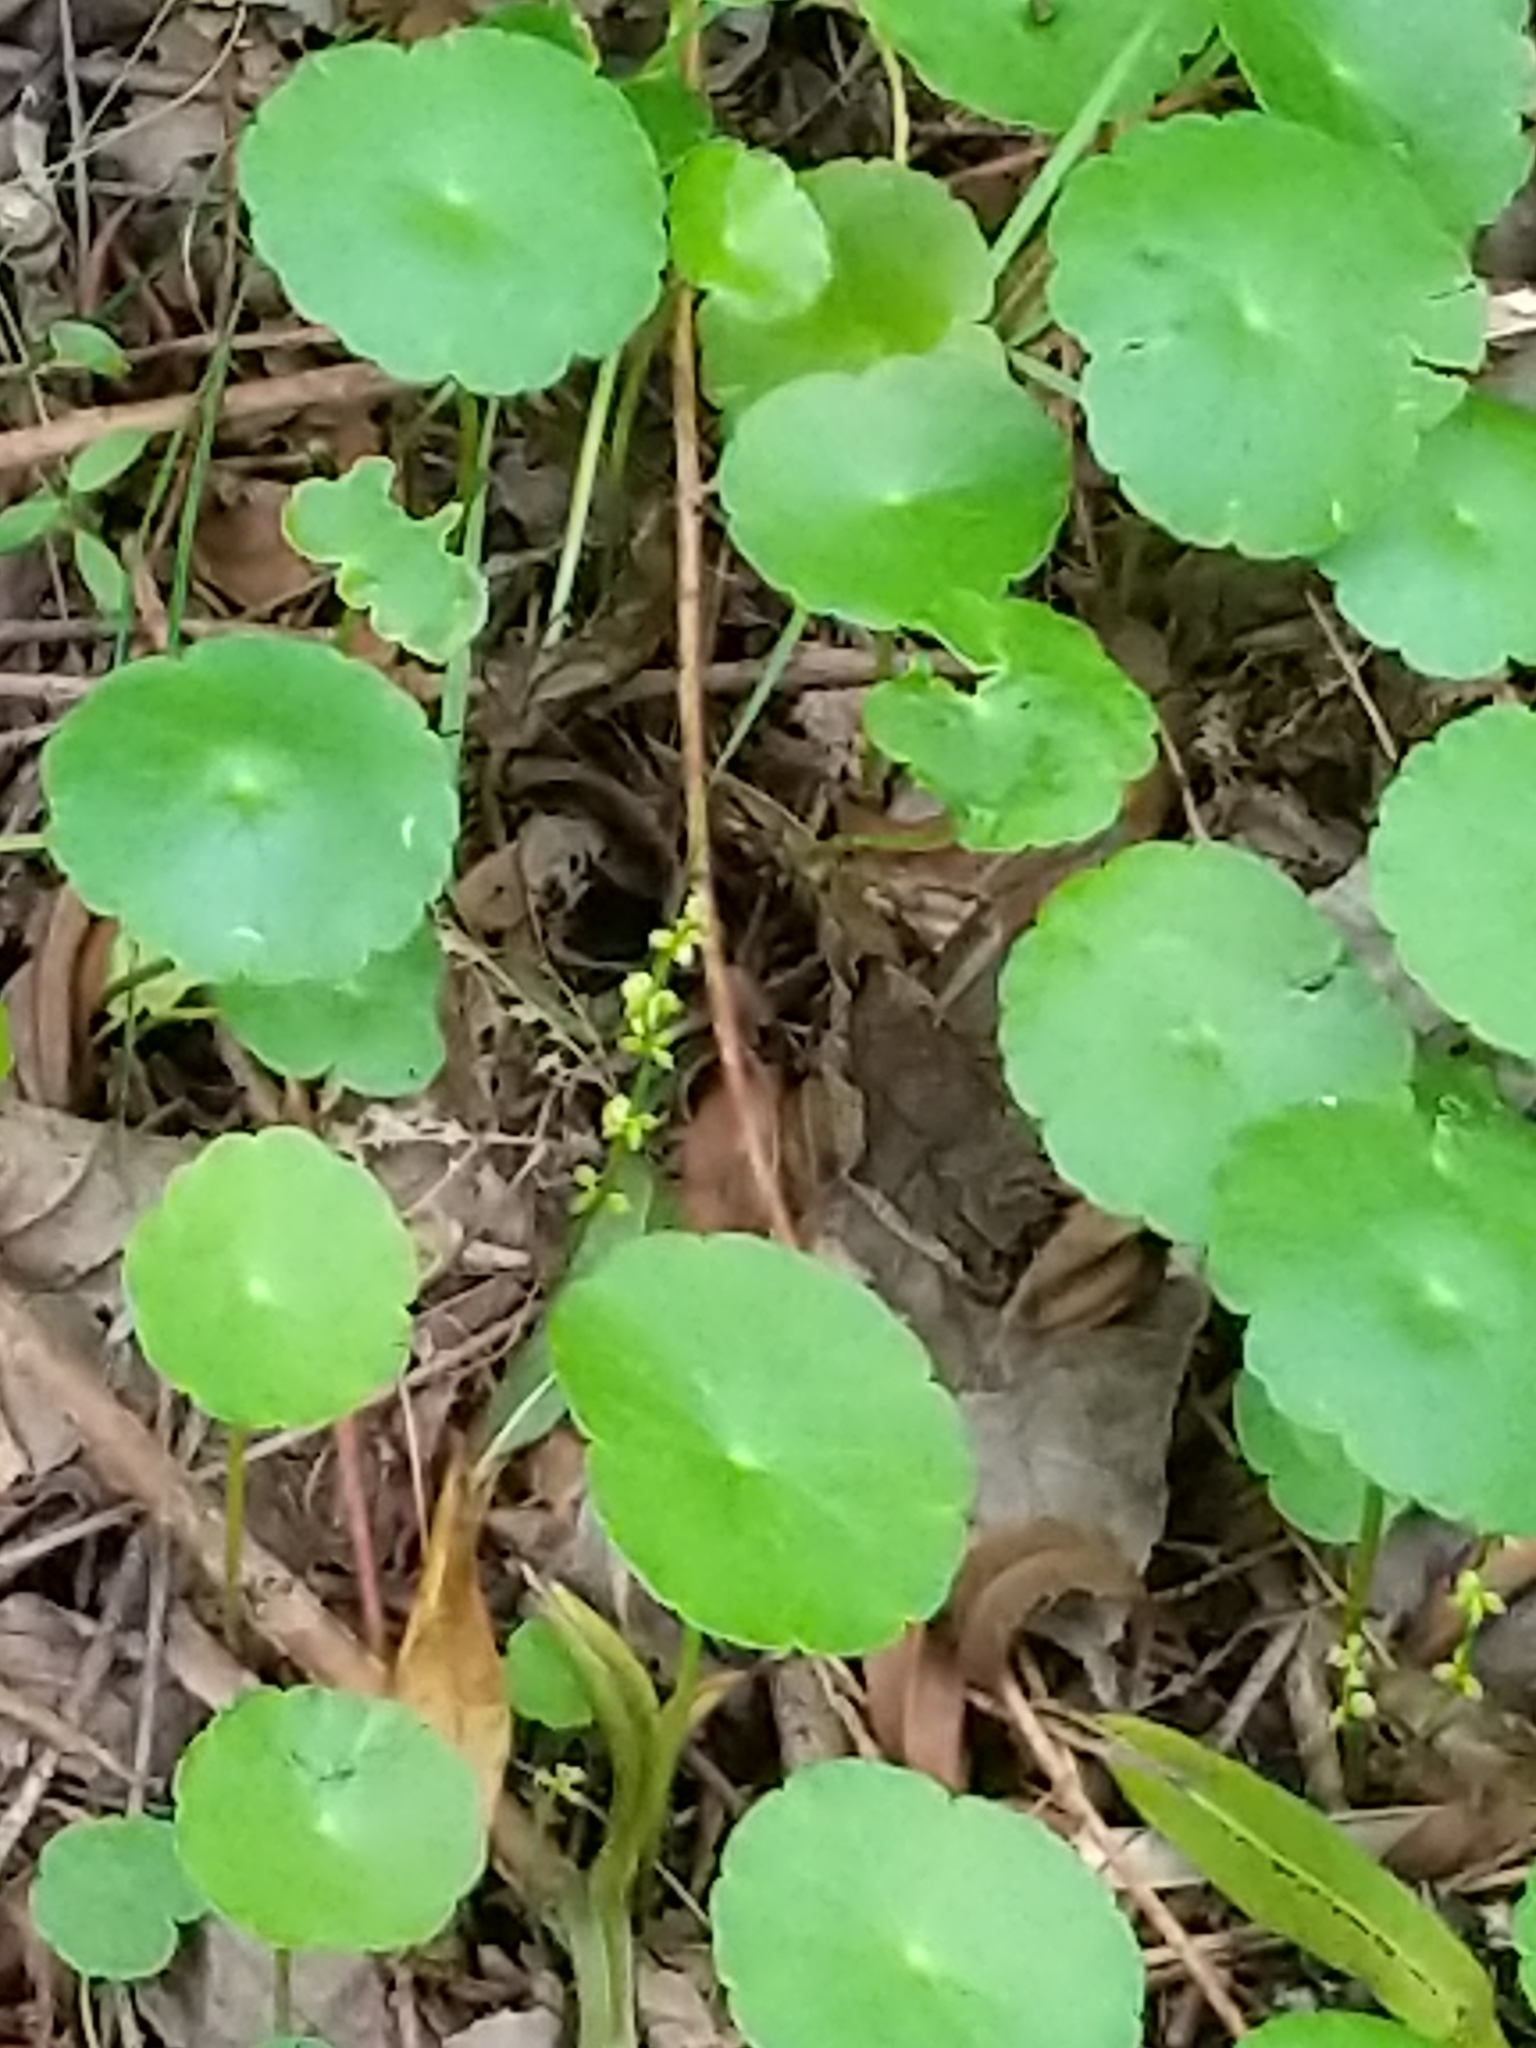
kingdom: Plantae
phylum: Tracheophyta
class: Magnoliopsida
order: Apiales
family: Araliaceae
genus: Hydrocotyle
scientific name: Hydrocotyle verticillata
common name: Whorled marshpennywort
